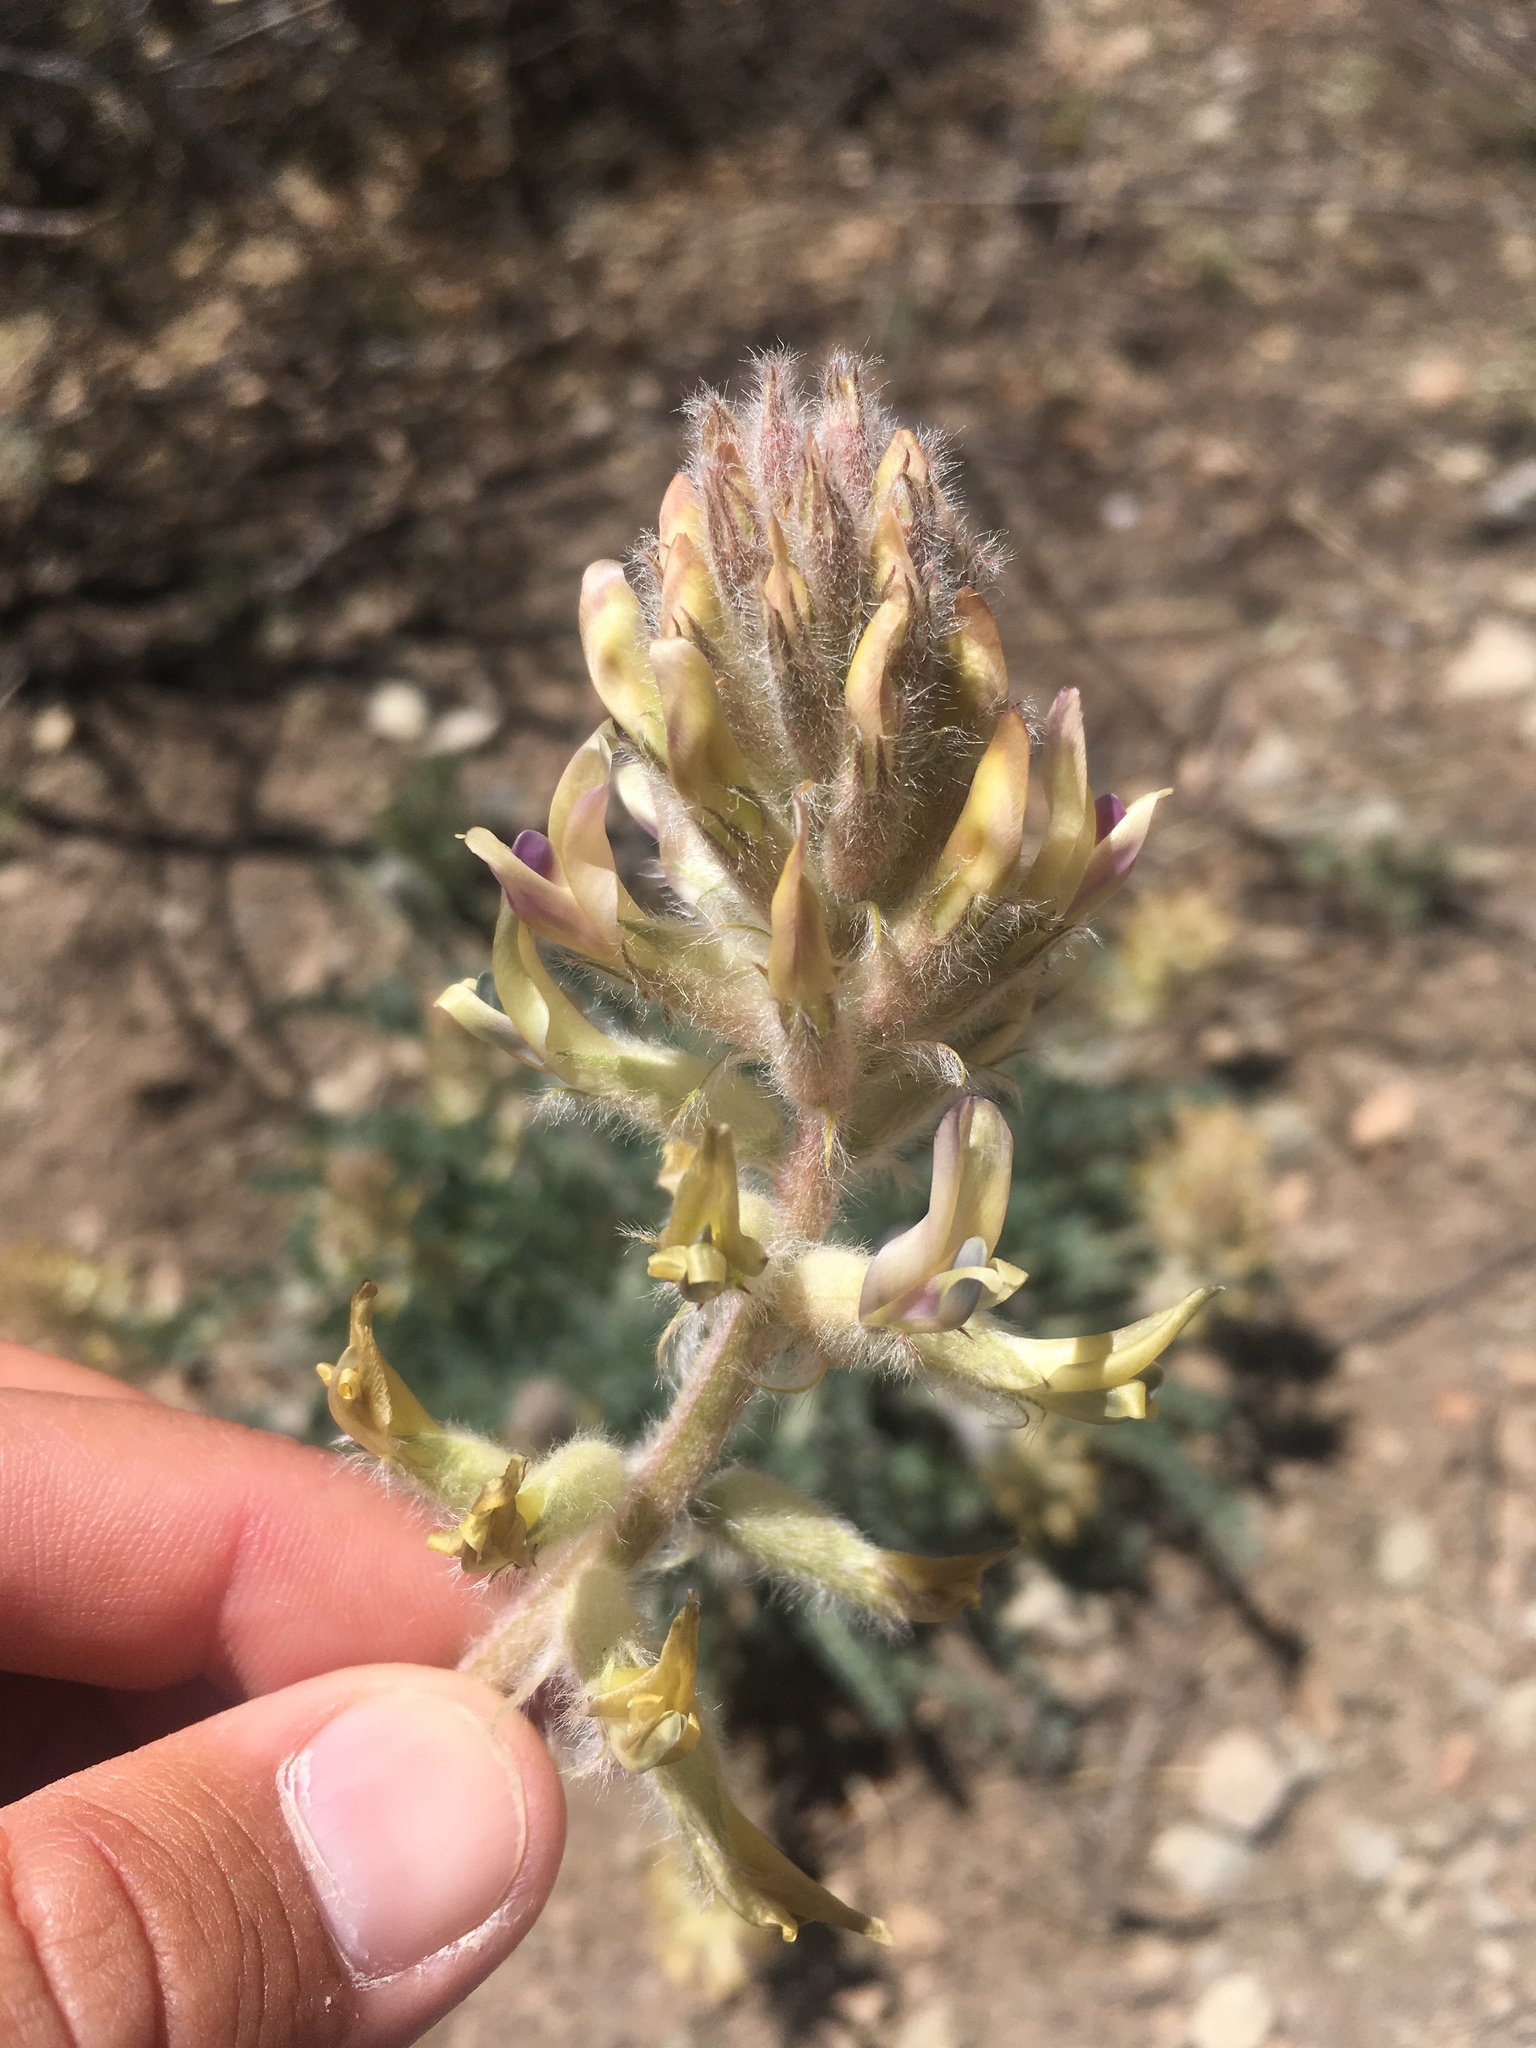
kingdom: Plantae
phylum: Tracheophyta
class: Magnoliopsida
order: Fabales
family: Fabaceae
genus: Astragalus
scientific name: Astragalus mollissimus
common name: Woolly locoweed
